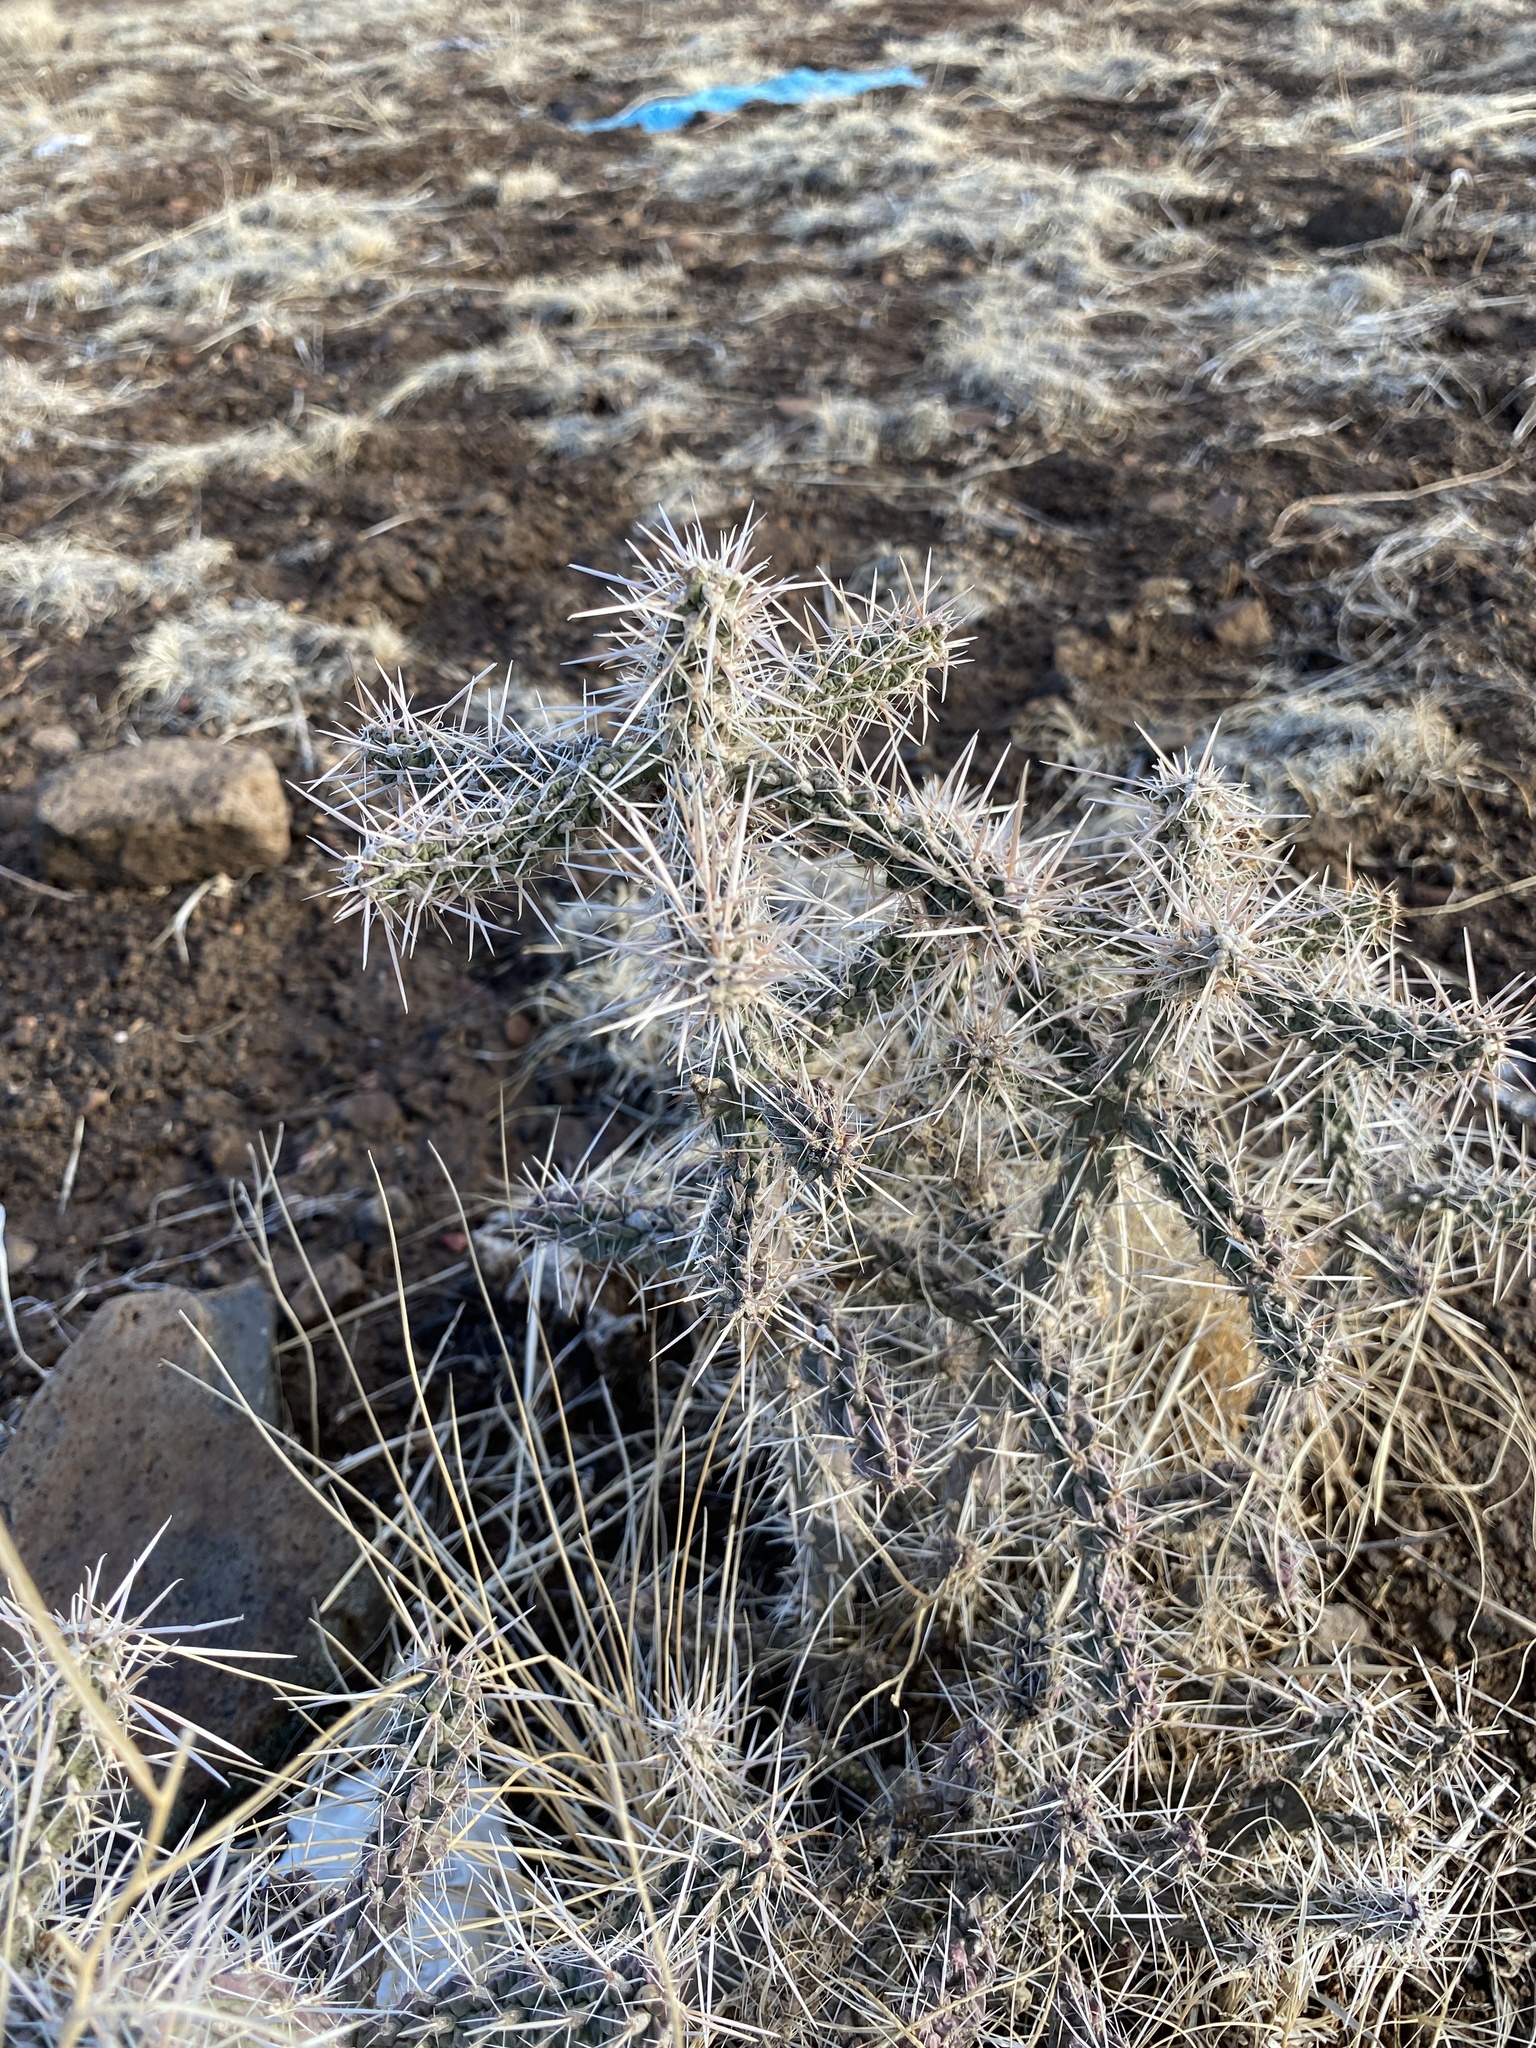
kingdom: Plantae
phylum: Tracheophyta
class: Magnoliopsida
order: Caryophyllales
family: Cactaceae
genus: Cylindropuntia
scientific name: Cylindropuntia whipplei
